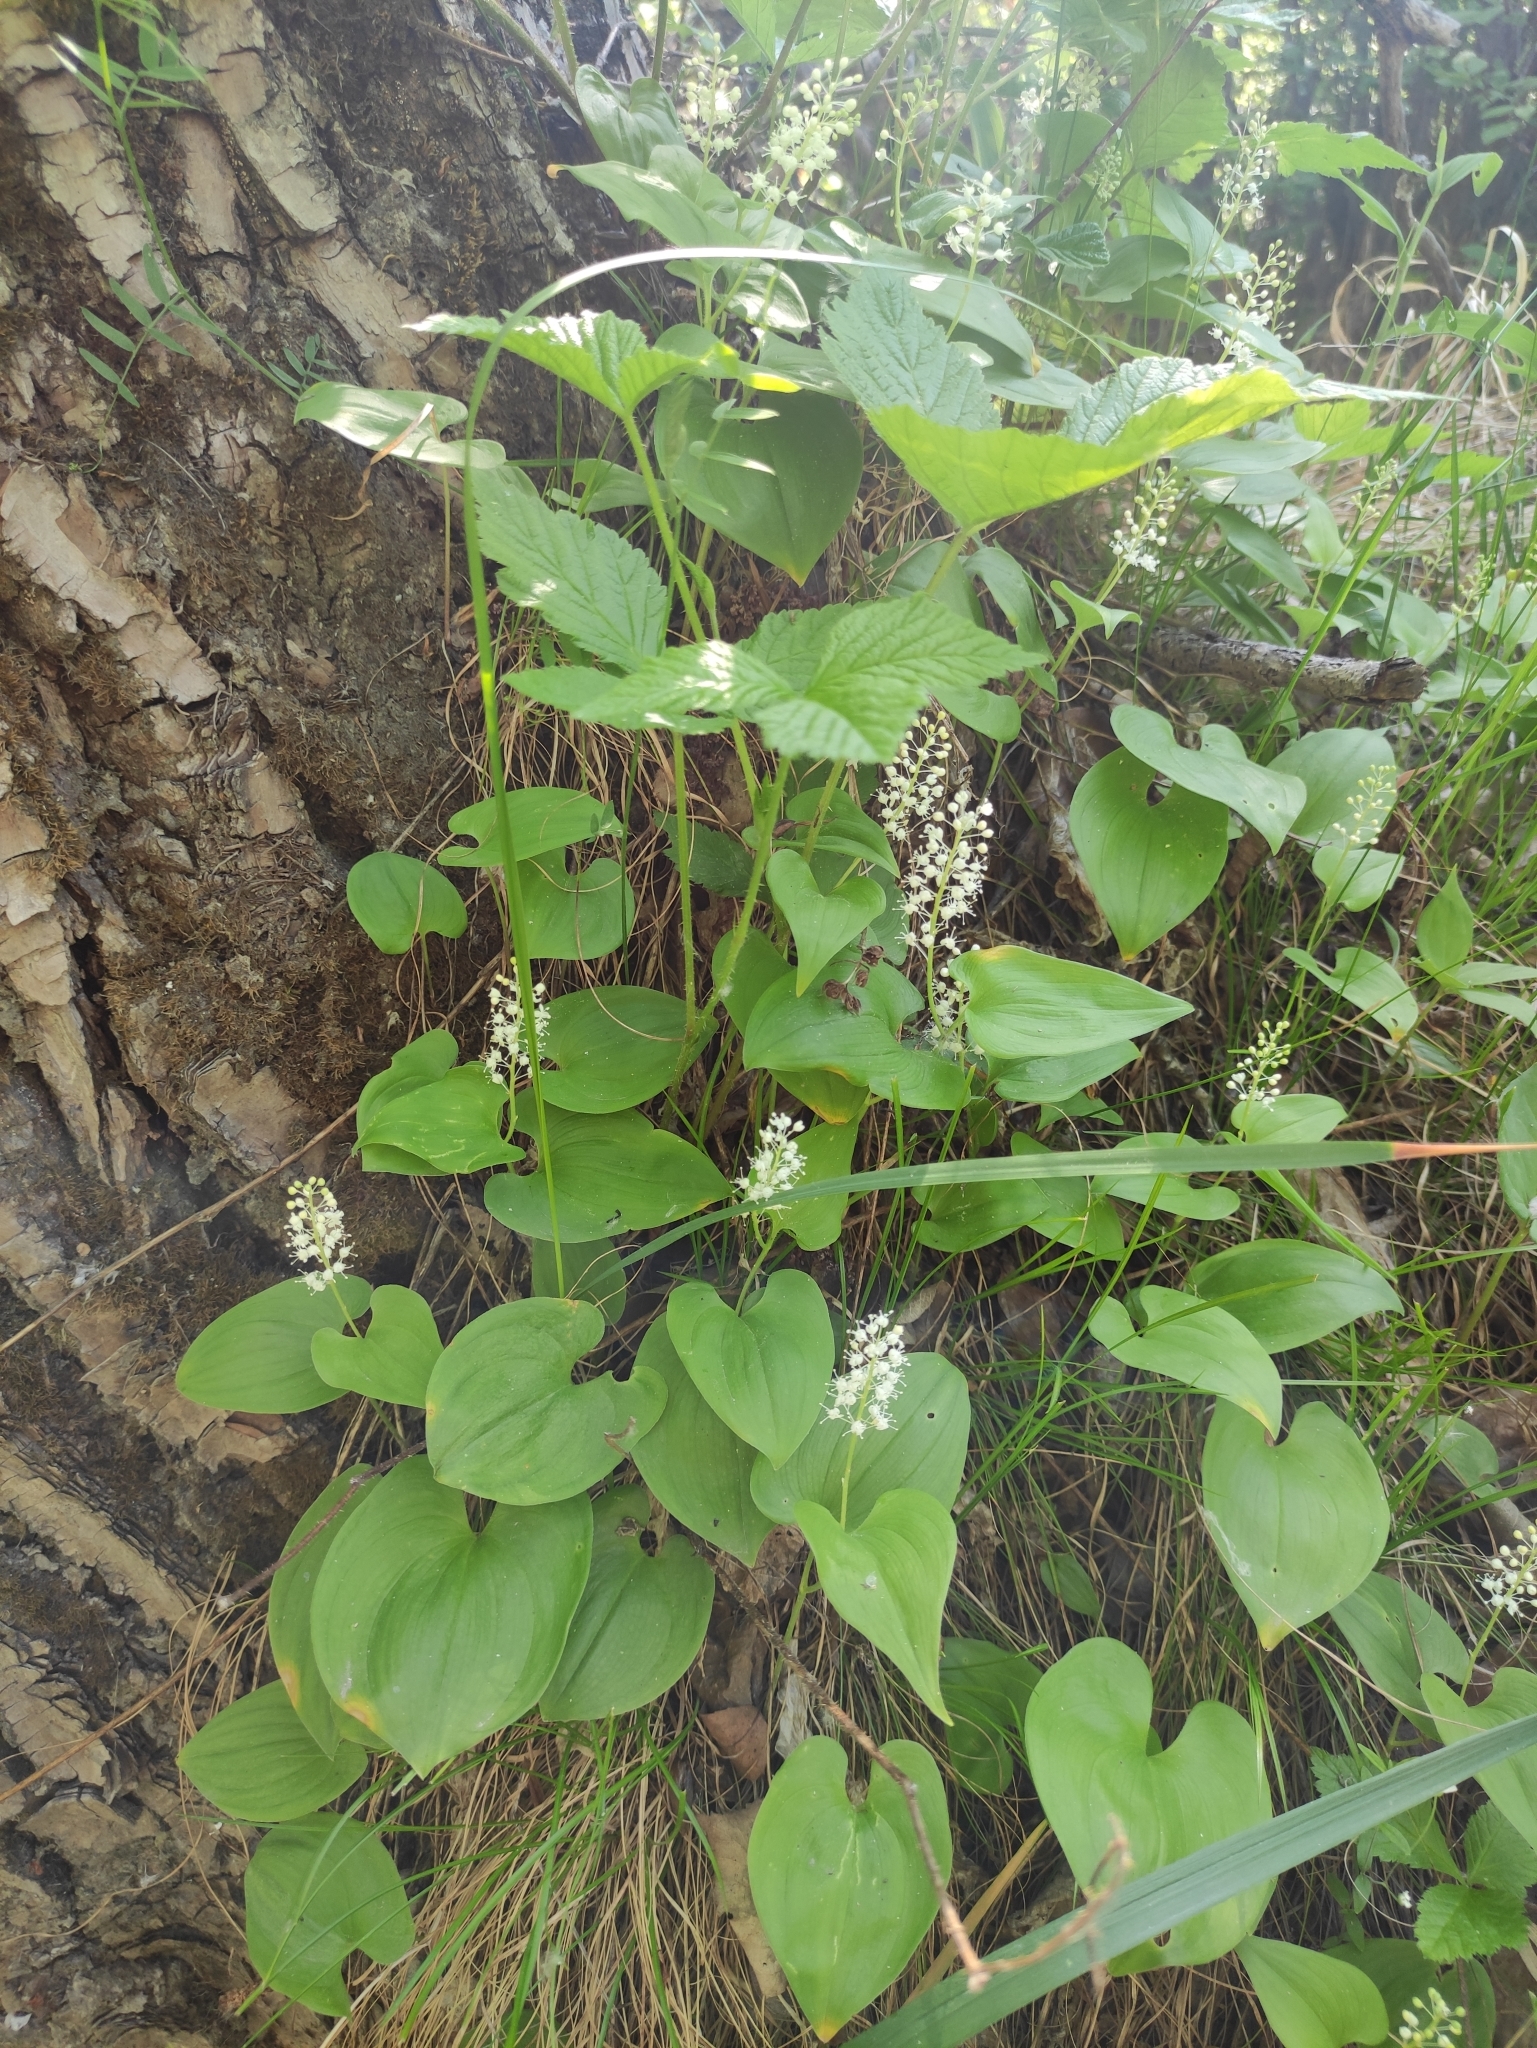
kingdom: Plantae
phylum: Tracheophyta
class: Liliopsida
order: Asparagales
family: Asparagaceae
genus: Maianthemum
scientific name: Maianthemum bifolium
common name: May lily
